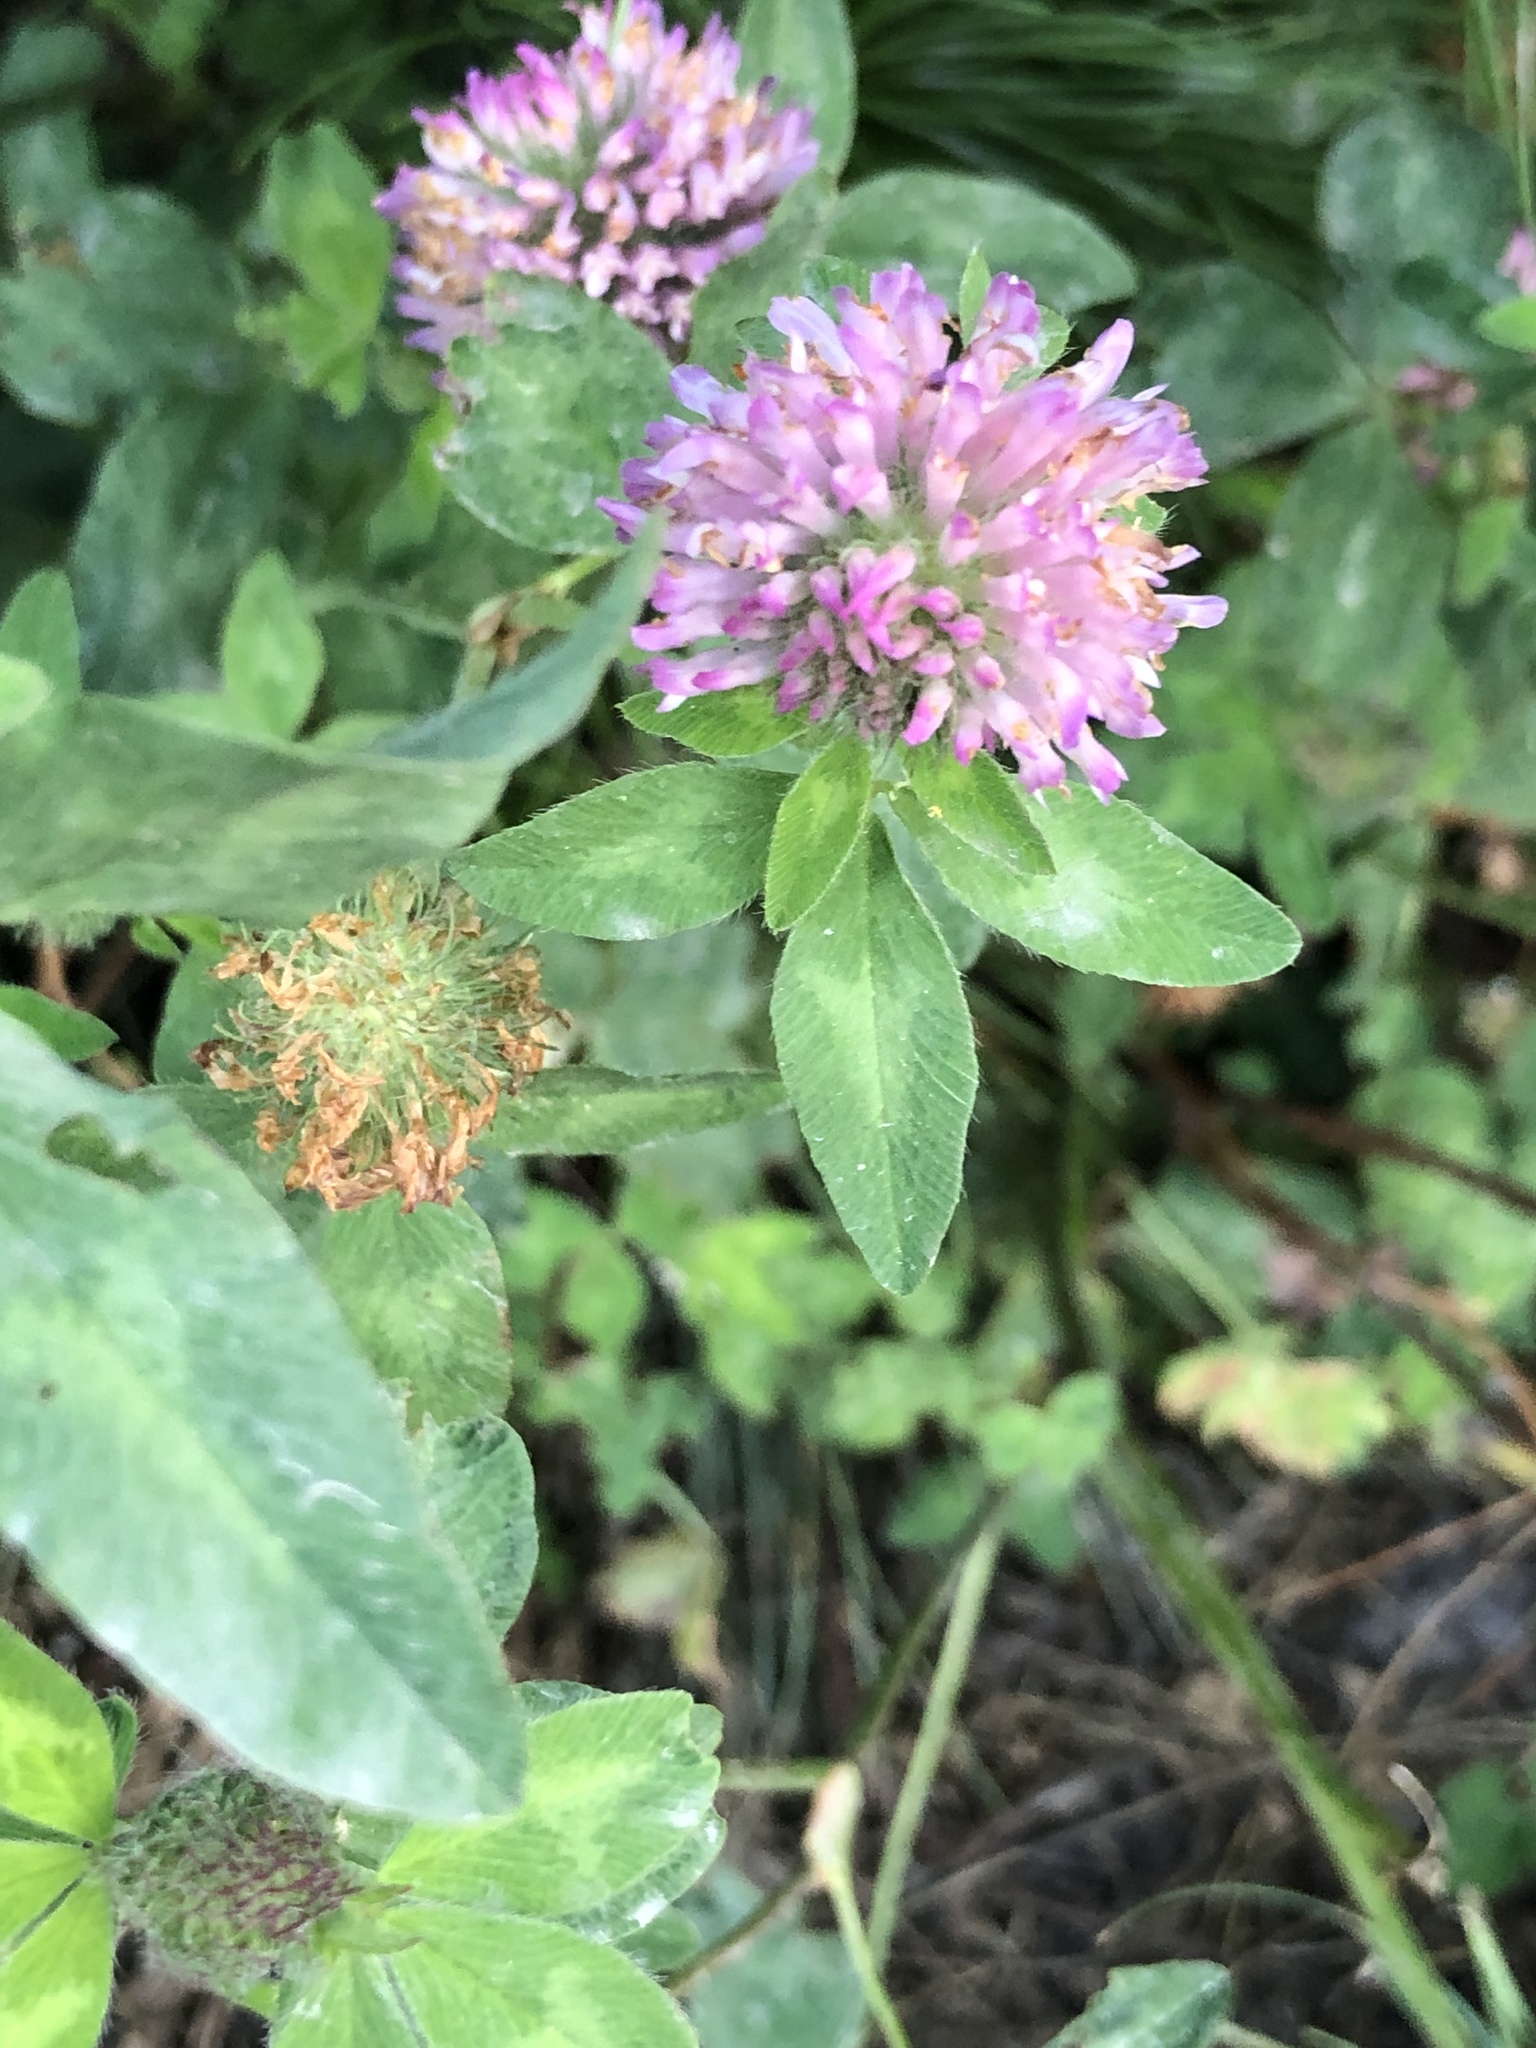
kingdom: Plantae
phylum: Tracheophyta
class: Magnoliopsida
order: Fabales
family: Fabaceae
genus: Trifolium
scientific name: Trifolium pratense
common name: Red clover
